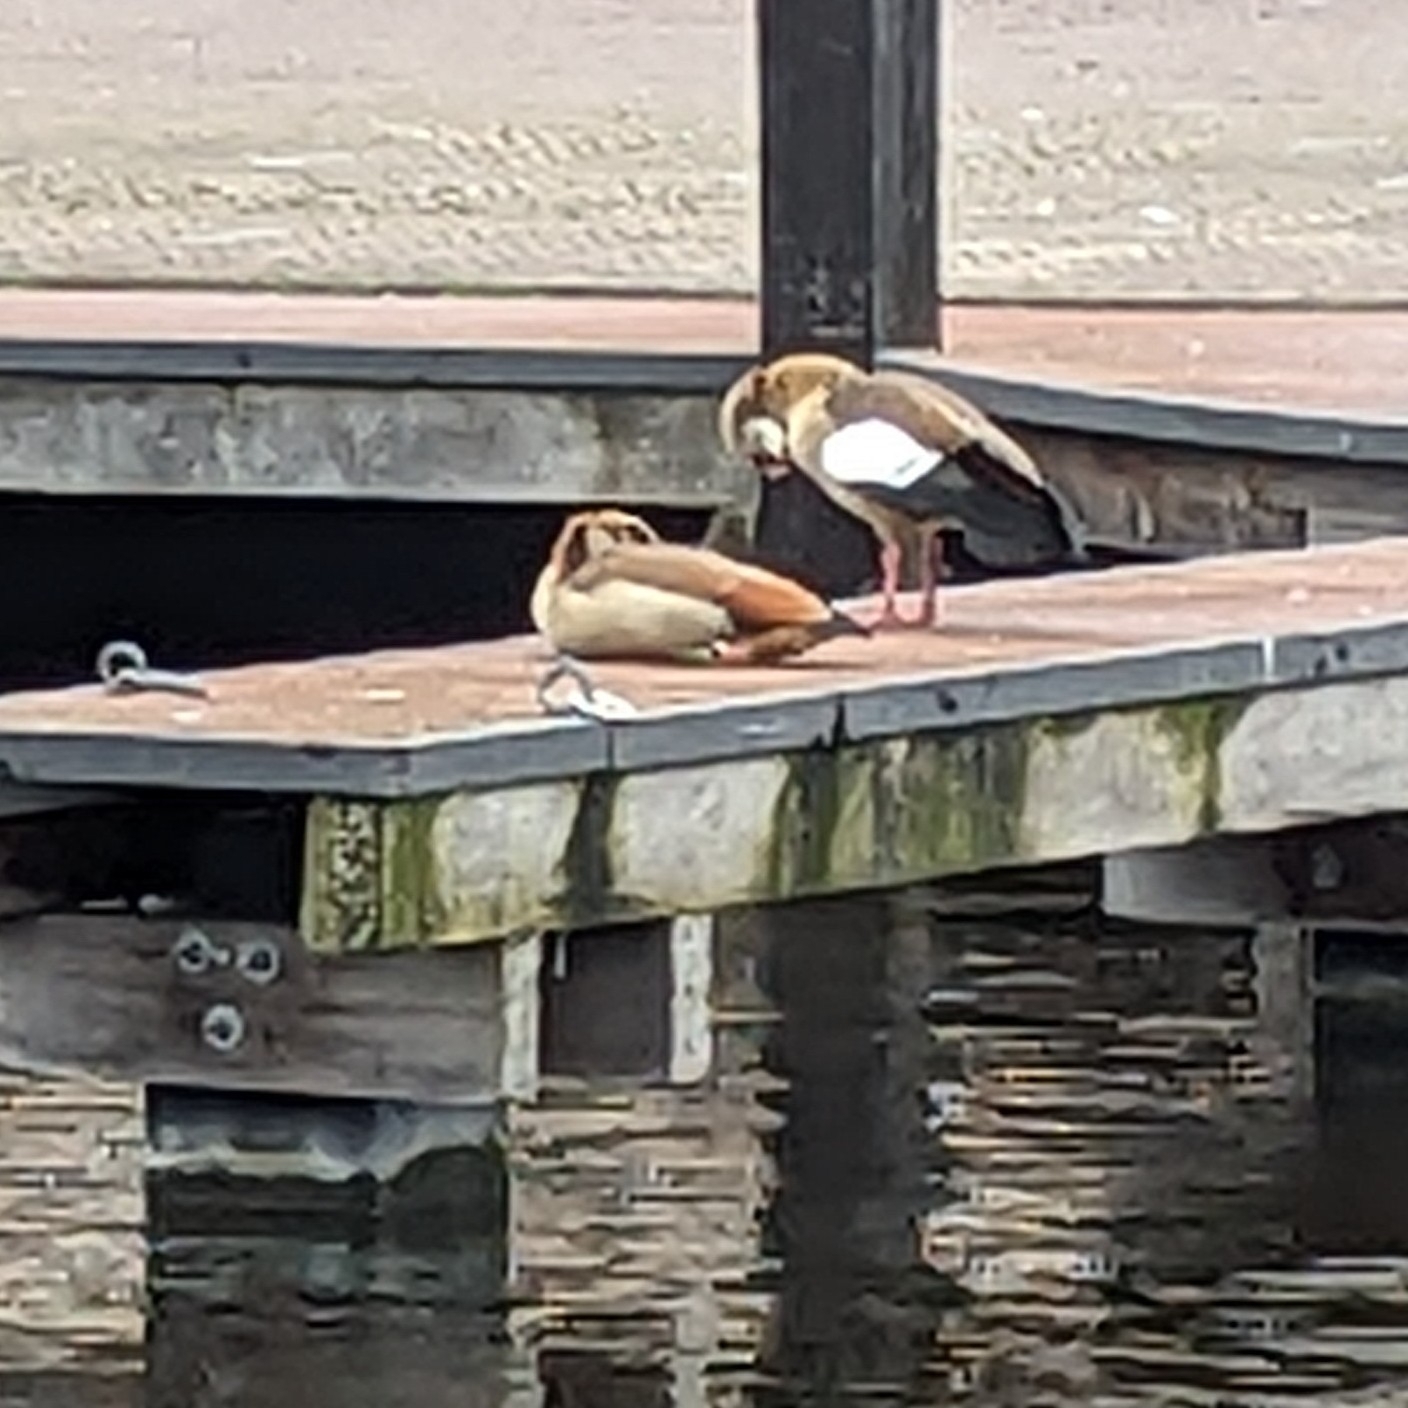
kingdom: Animalia
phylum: Chordata
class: Aves
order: Anseriformes
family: Anatidae
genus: Alopochen
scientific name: Alopochen aegyptiaca
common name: Egyptian goose
